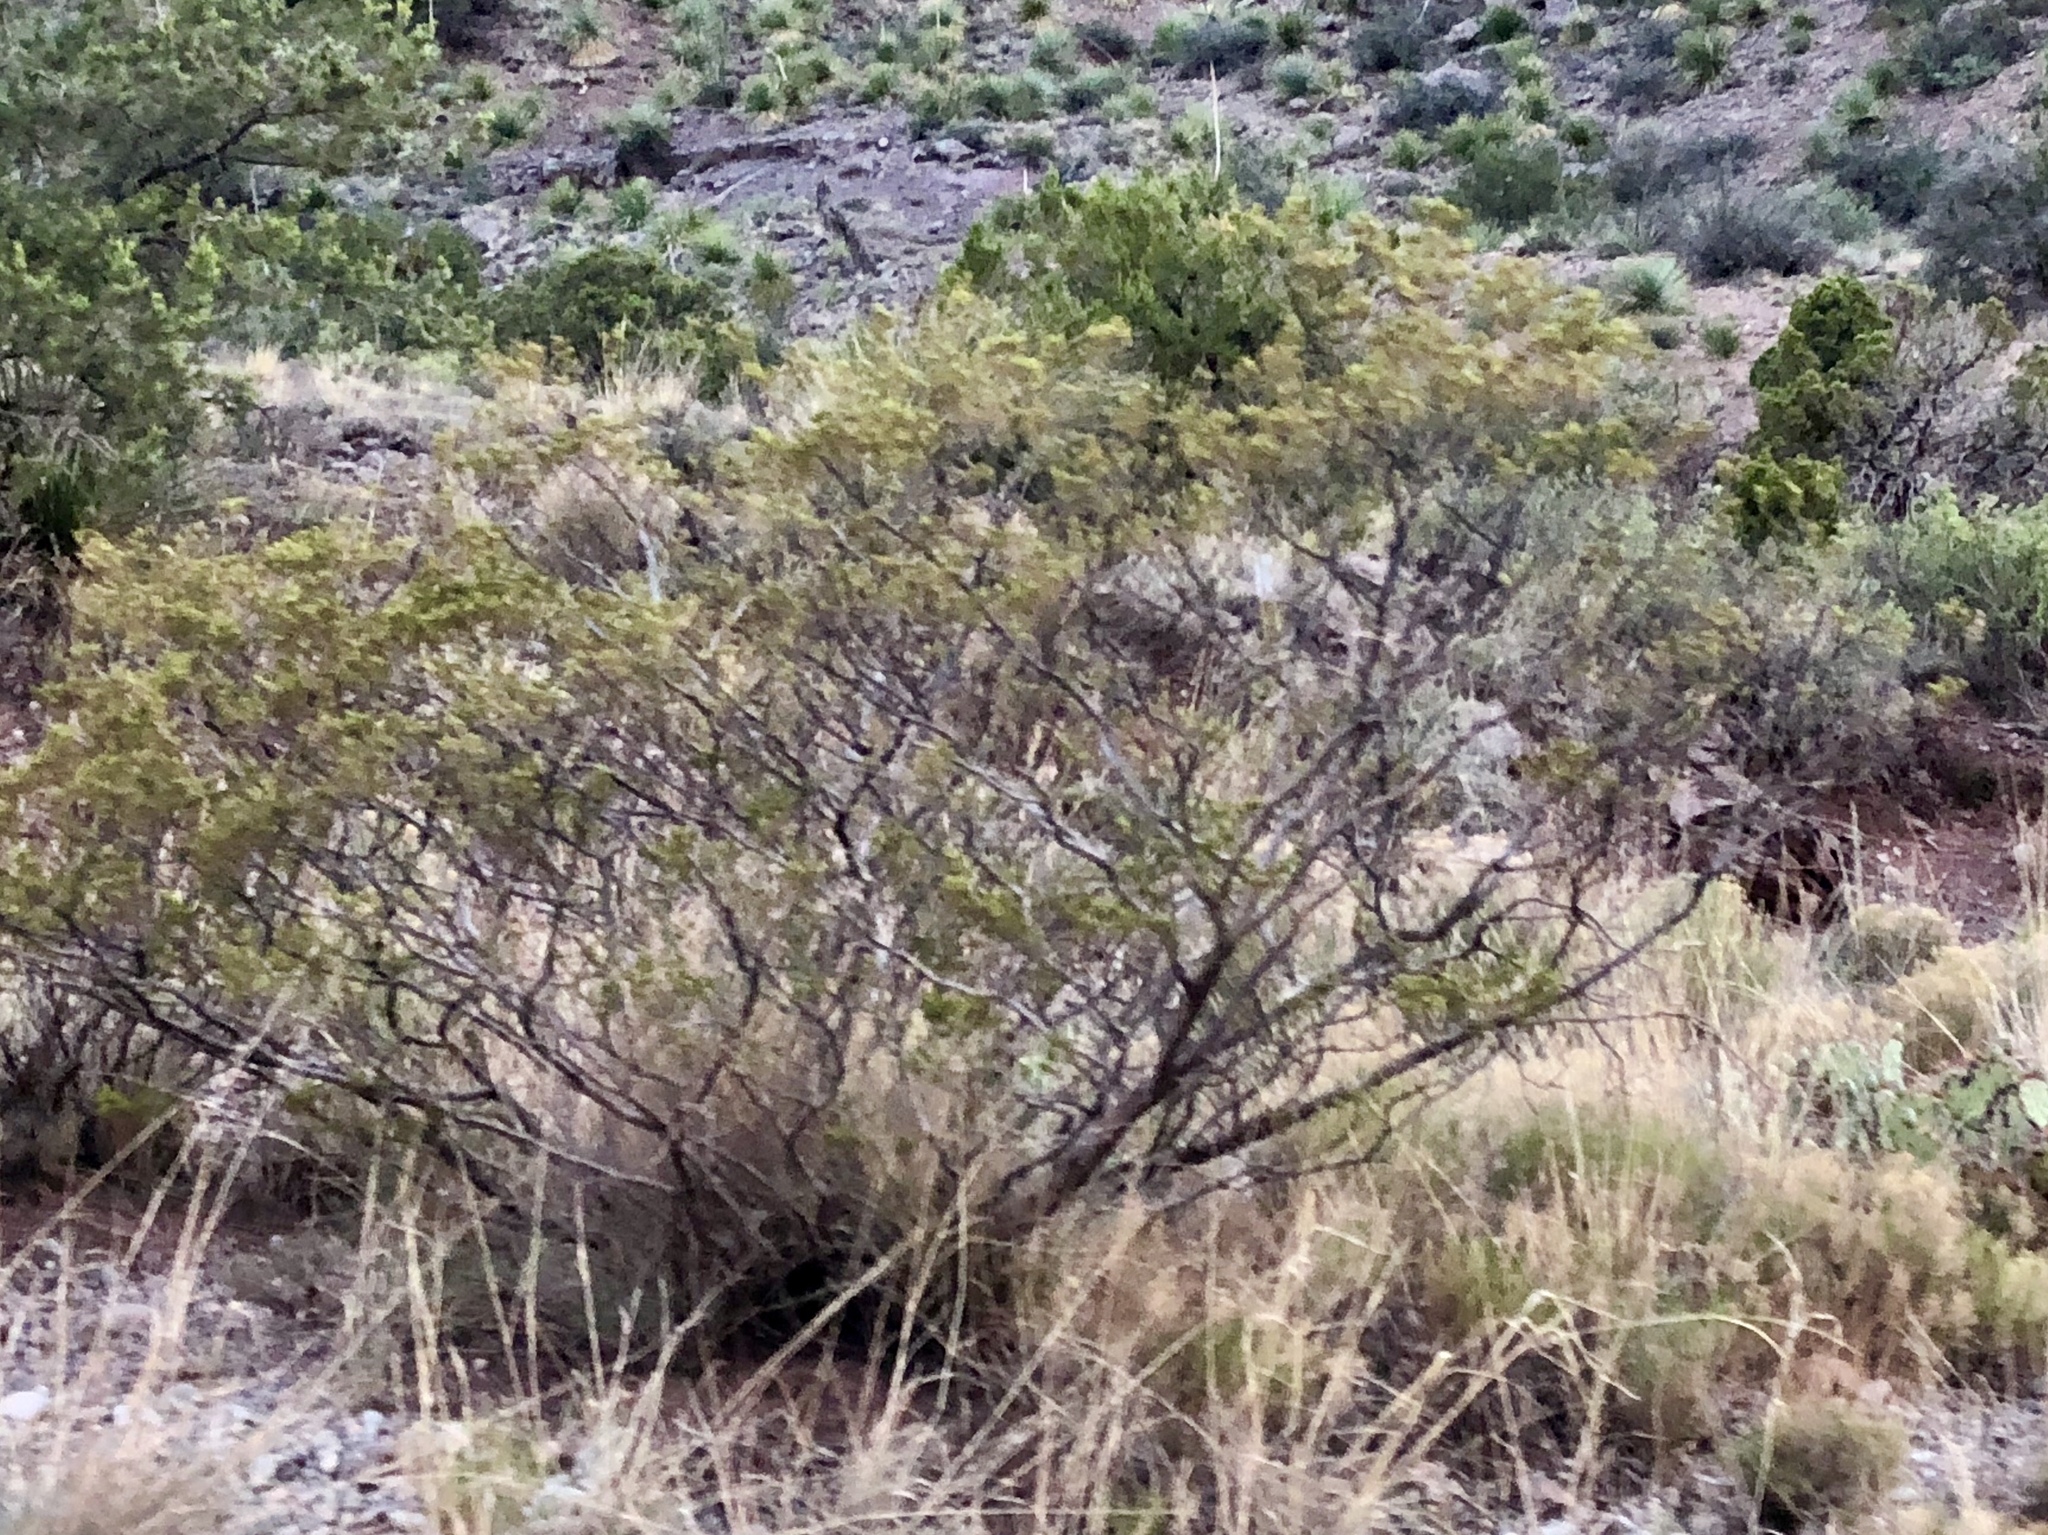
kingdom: Plantae
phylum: Tracheophyta
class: Magnoliopsida
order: Zygophyllales
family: Zygophyllaceae
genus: Larrea
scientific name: Larrea tridentata
